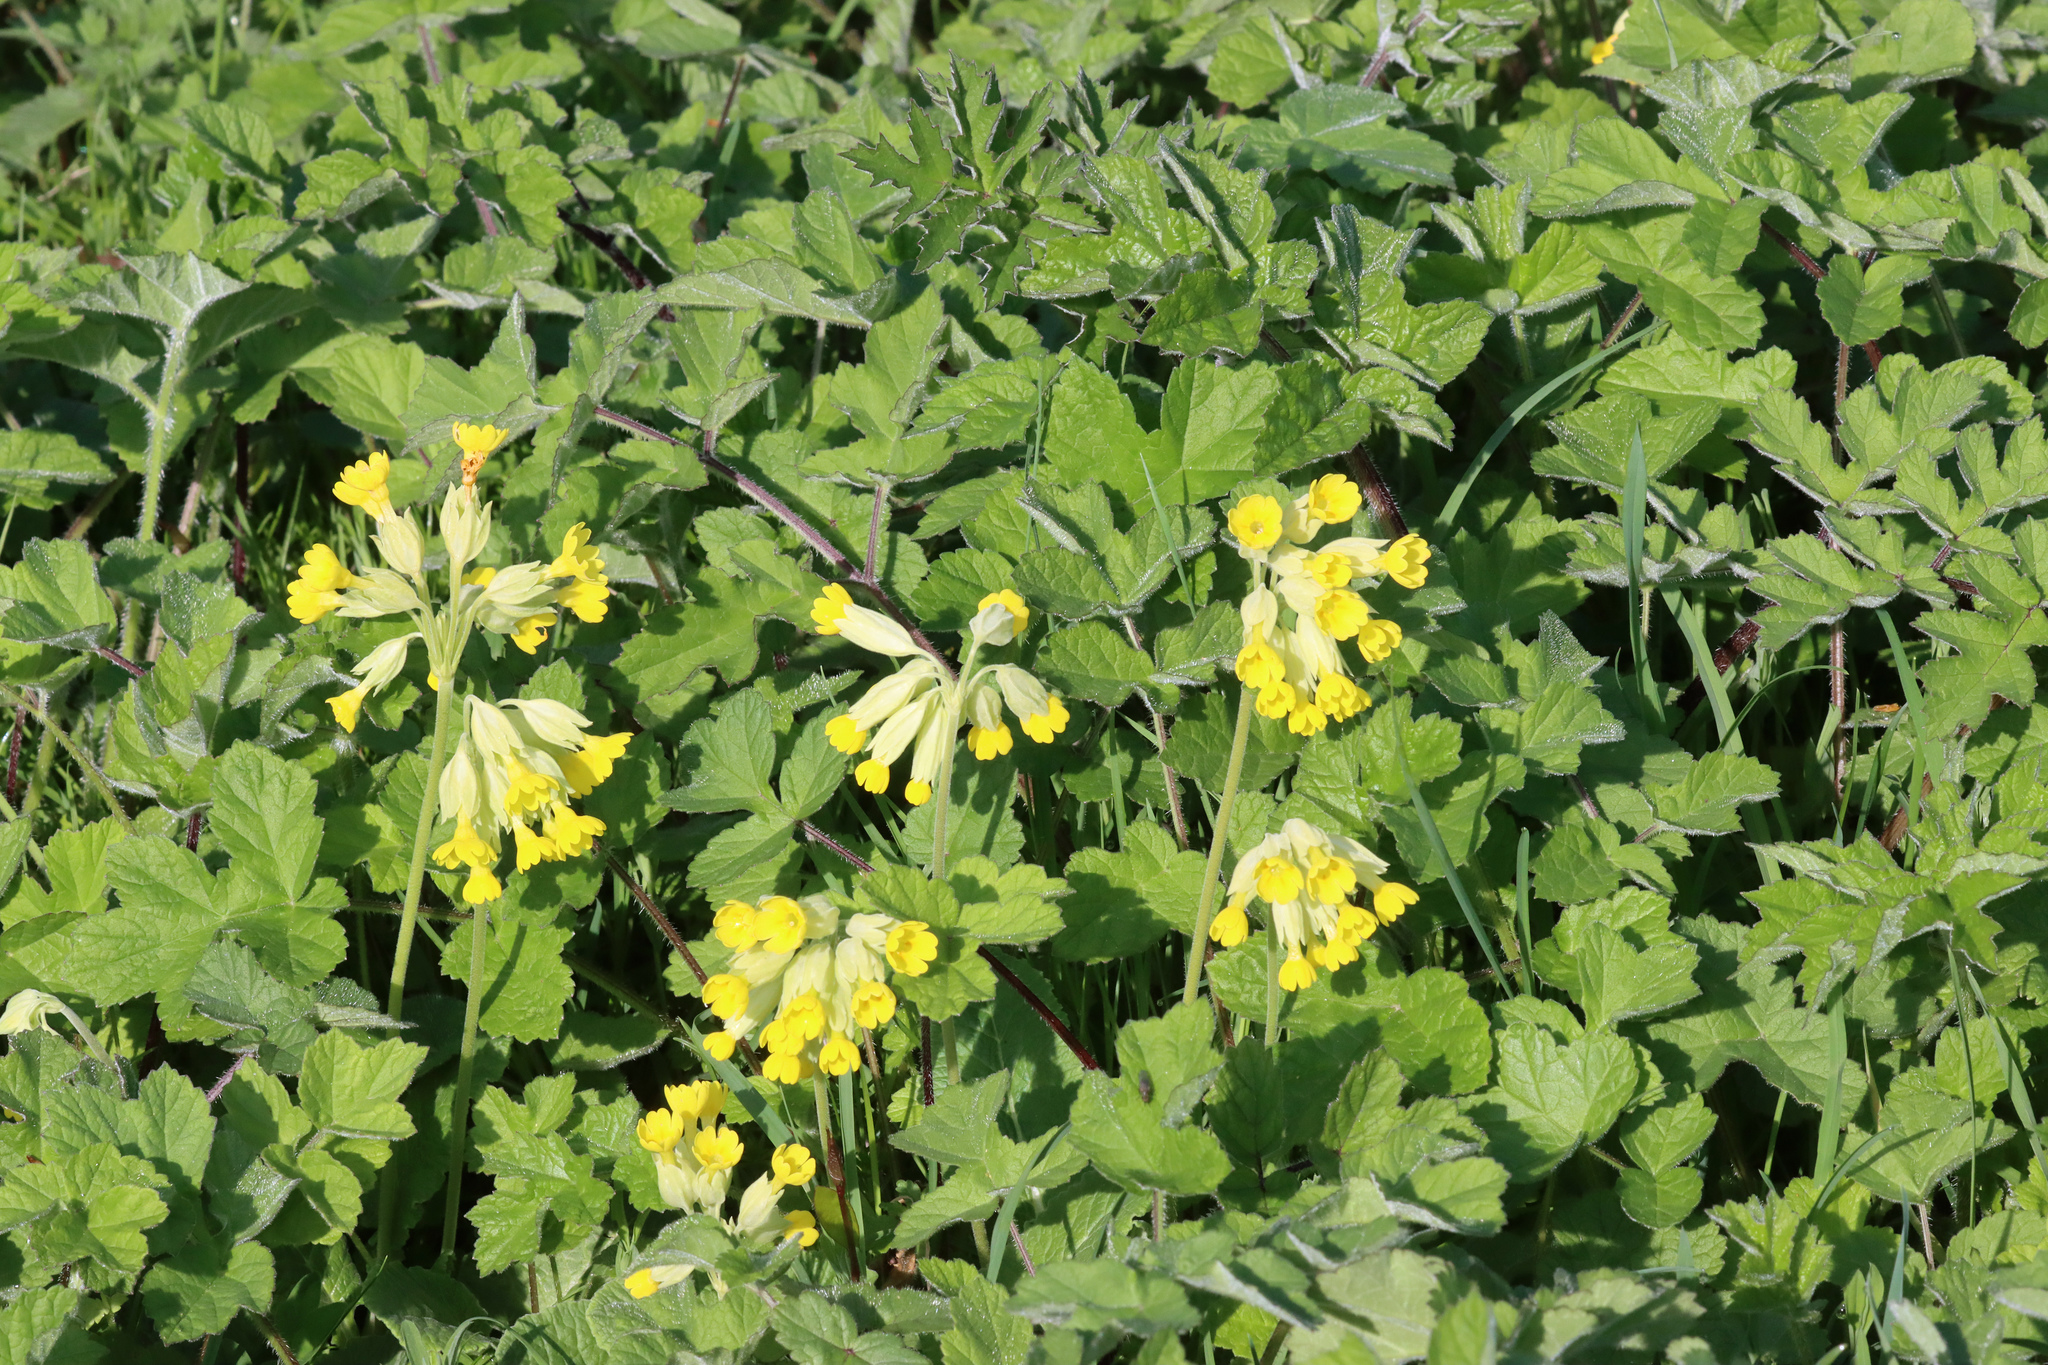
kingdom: Plantae
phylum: Tracheophyta
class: Magnoliopsida
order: Apiales
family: Apiaceae
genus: Heracleum
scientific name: Heracleum sphondylium
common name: Hogweed
